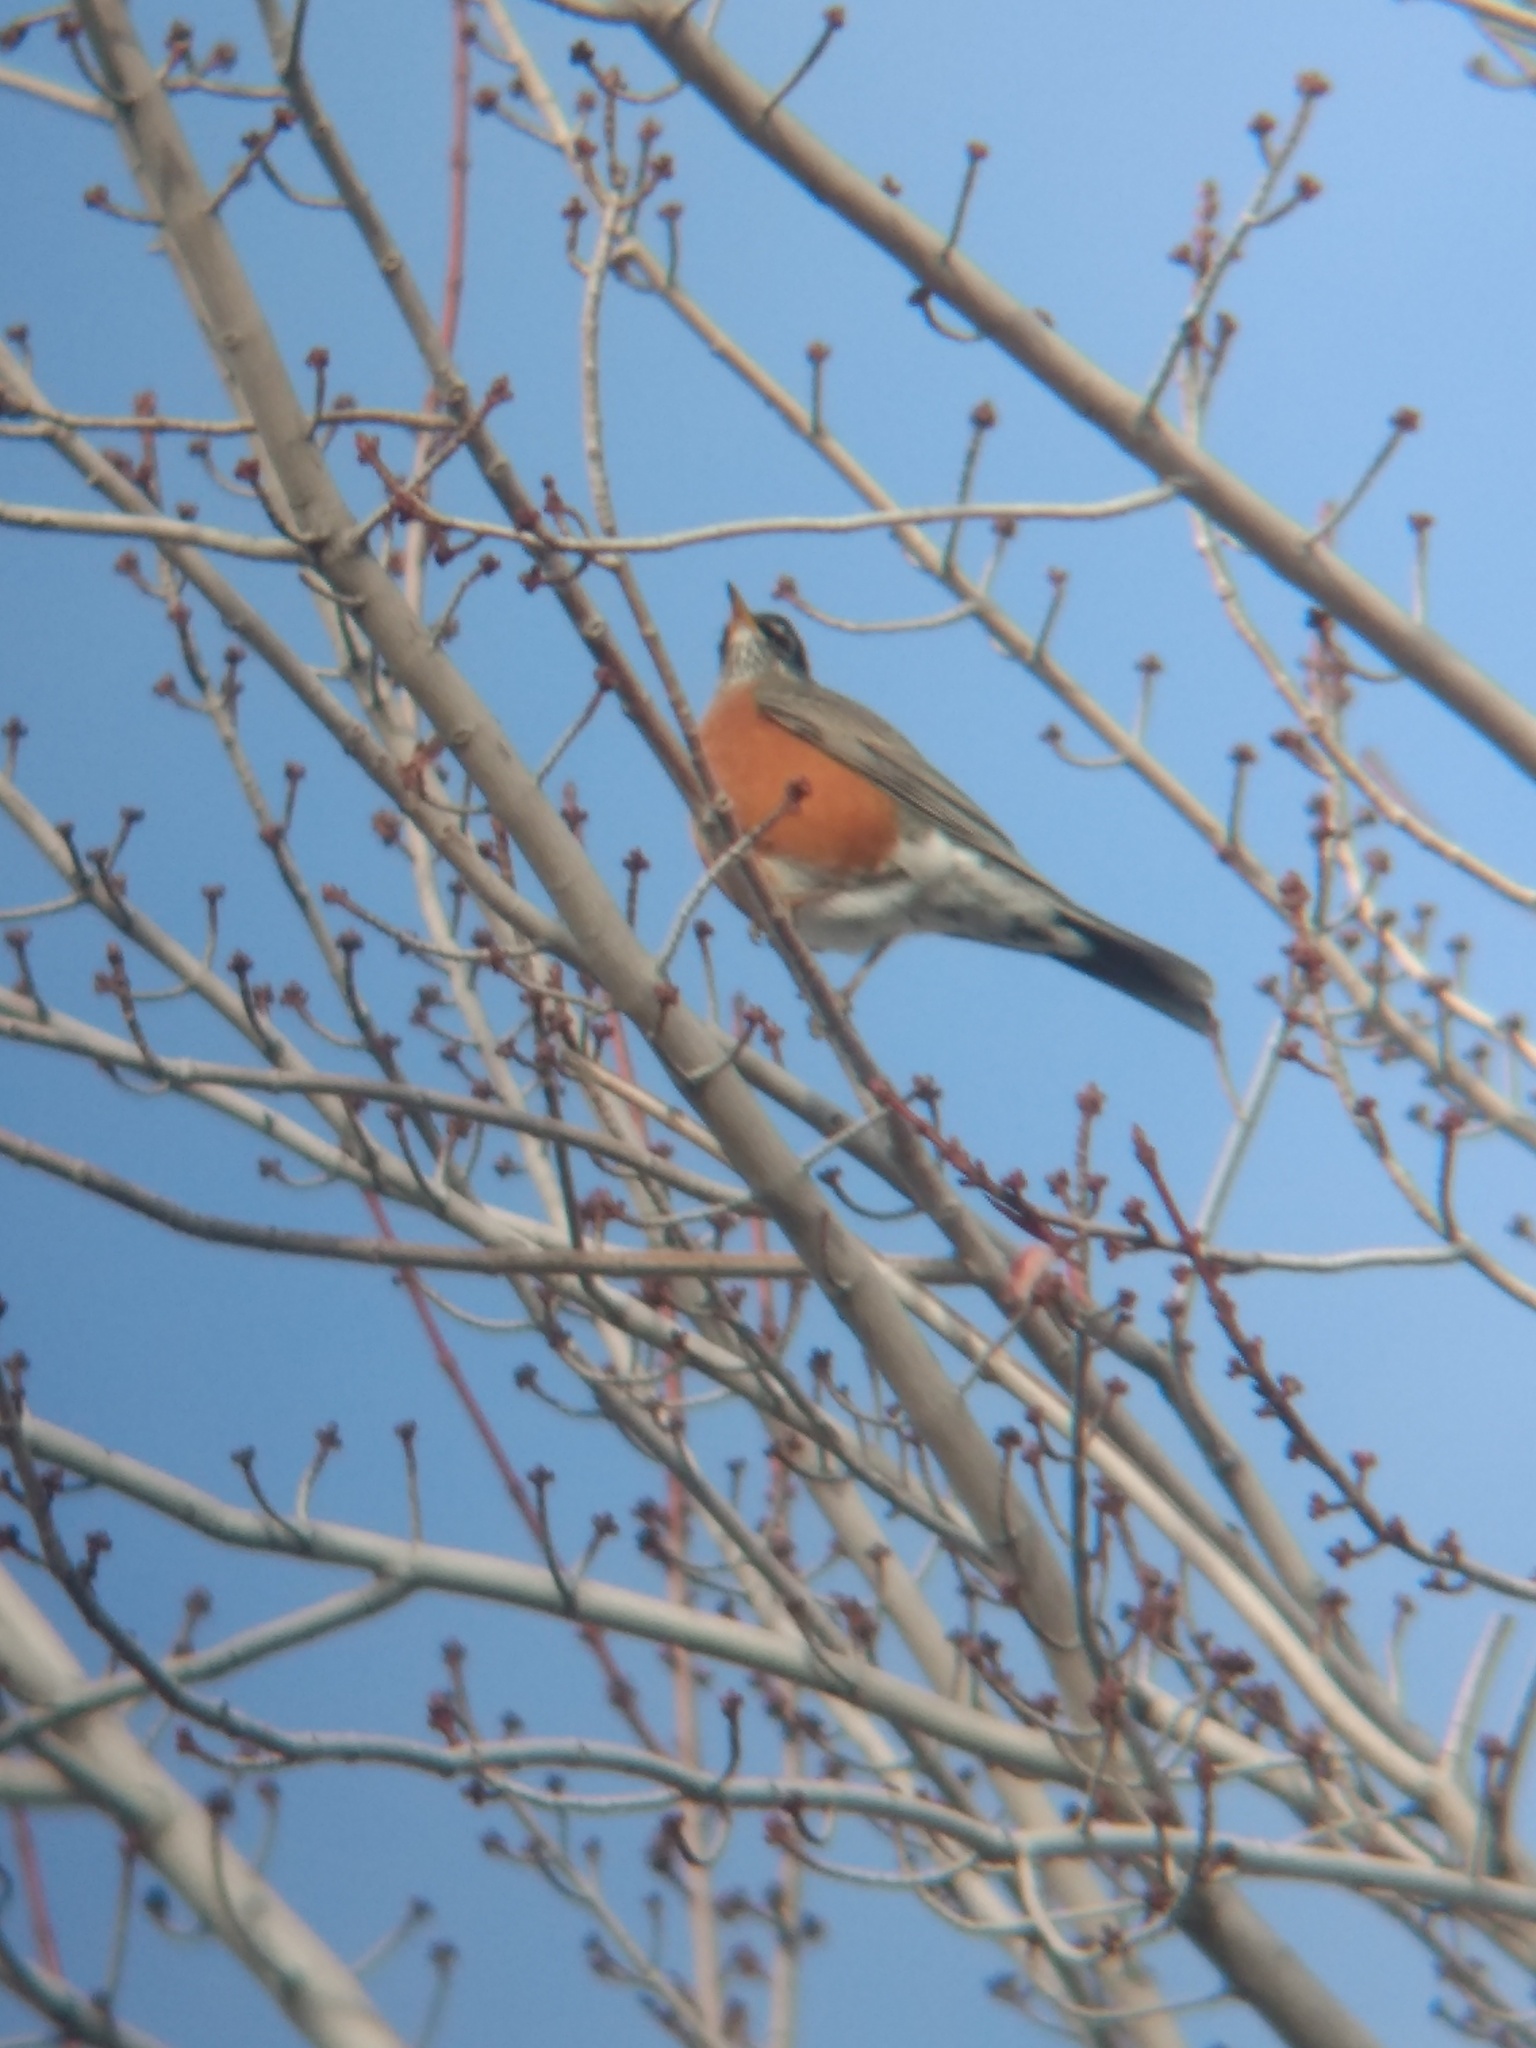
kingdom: Animalia
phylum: Chordata
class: Aves
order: Passeriformes
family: Turdidae
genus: Turdus
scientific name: Turdus migratorius
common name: American robin
